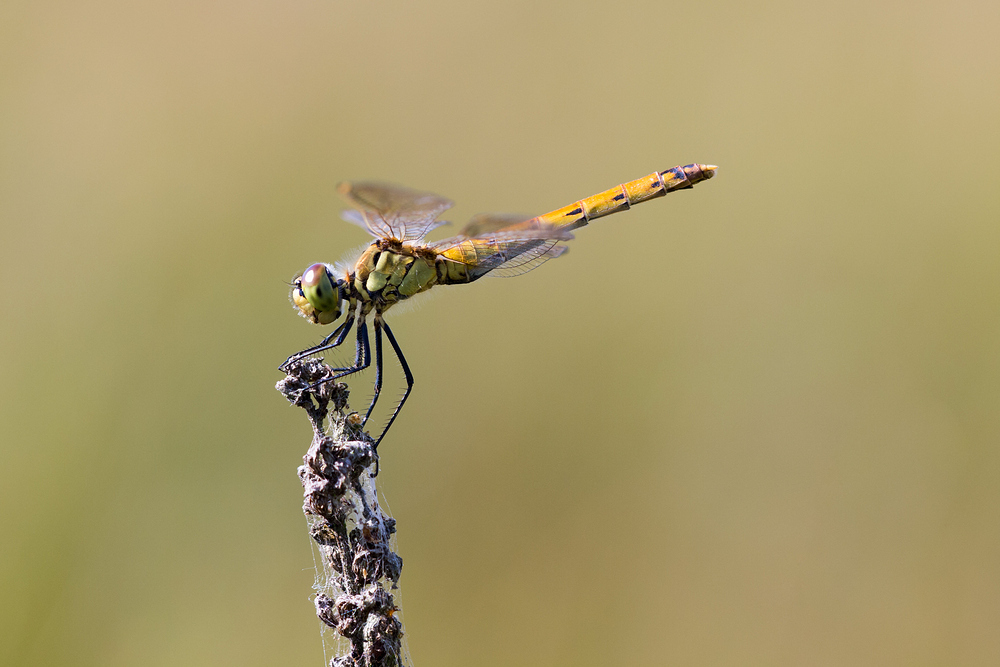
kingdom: Animalia
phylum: Arthropoda
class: Insecta
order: Odonata
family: Libellulidae
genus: Sympetrum
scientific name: Sympetrum depressiusculum
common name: Spotted darter
